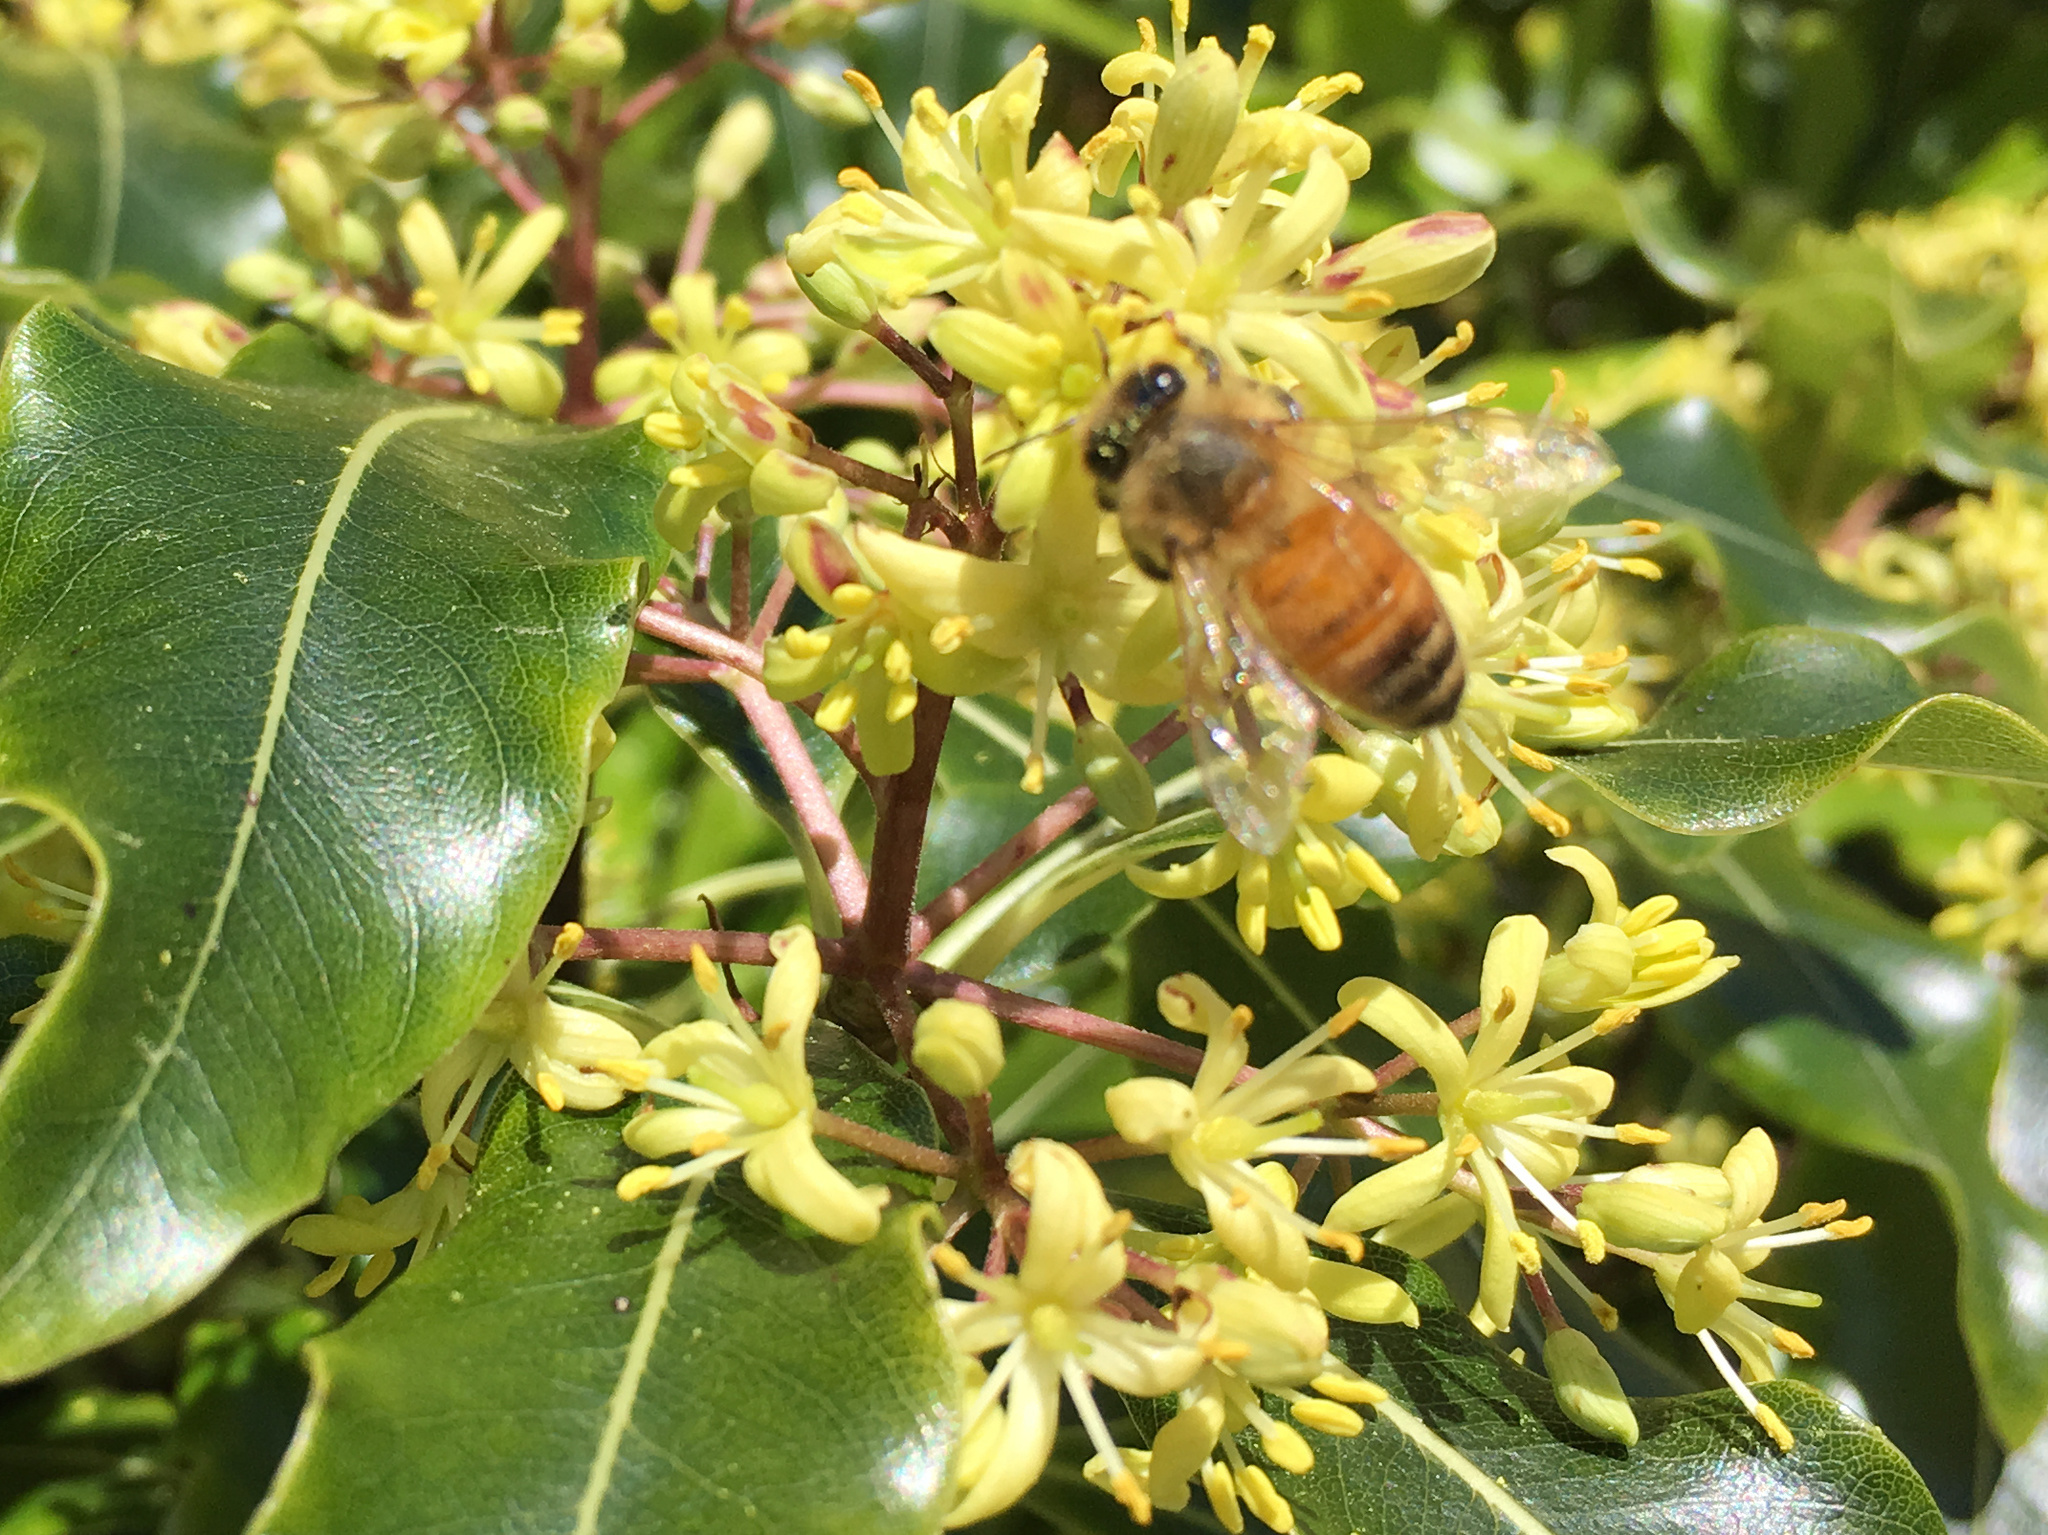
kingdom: Animalia
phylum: Arthropoda
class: Insecta
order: Hymenoptera
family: Apidae
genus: Apis
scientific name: Apis mellifera
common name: Honey bee
